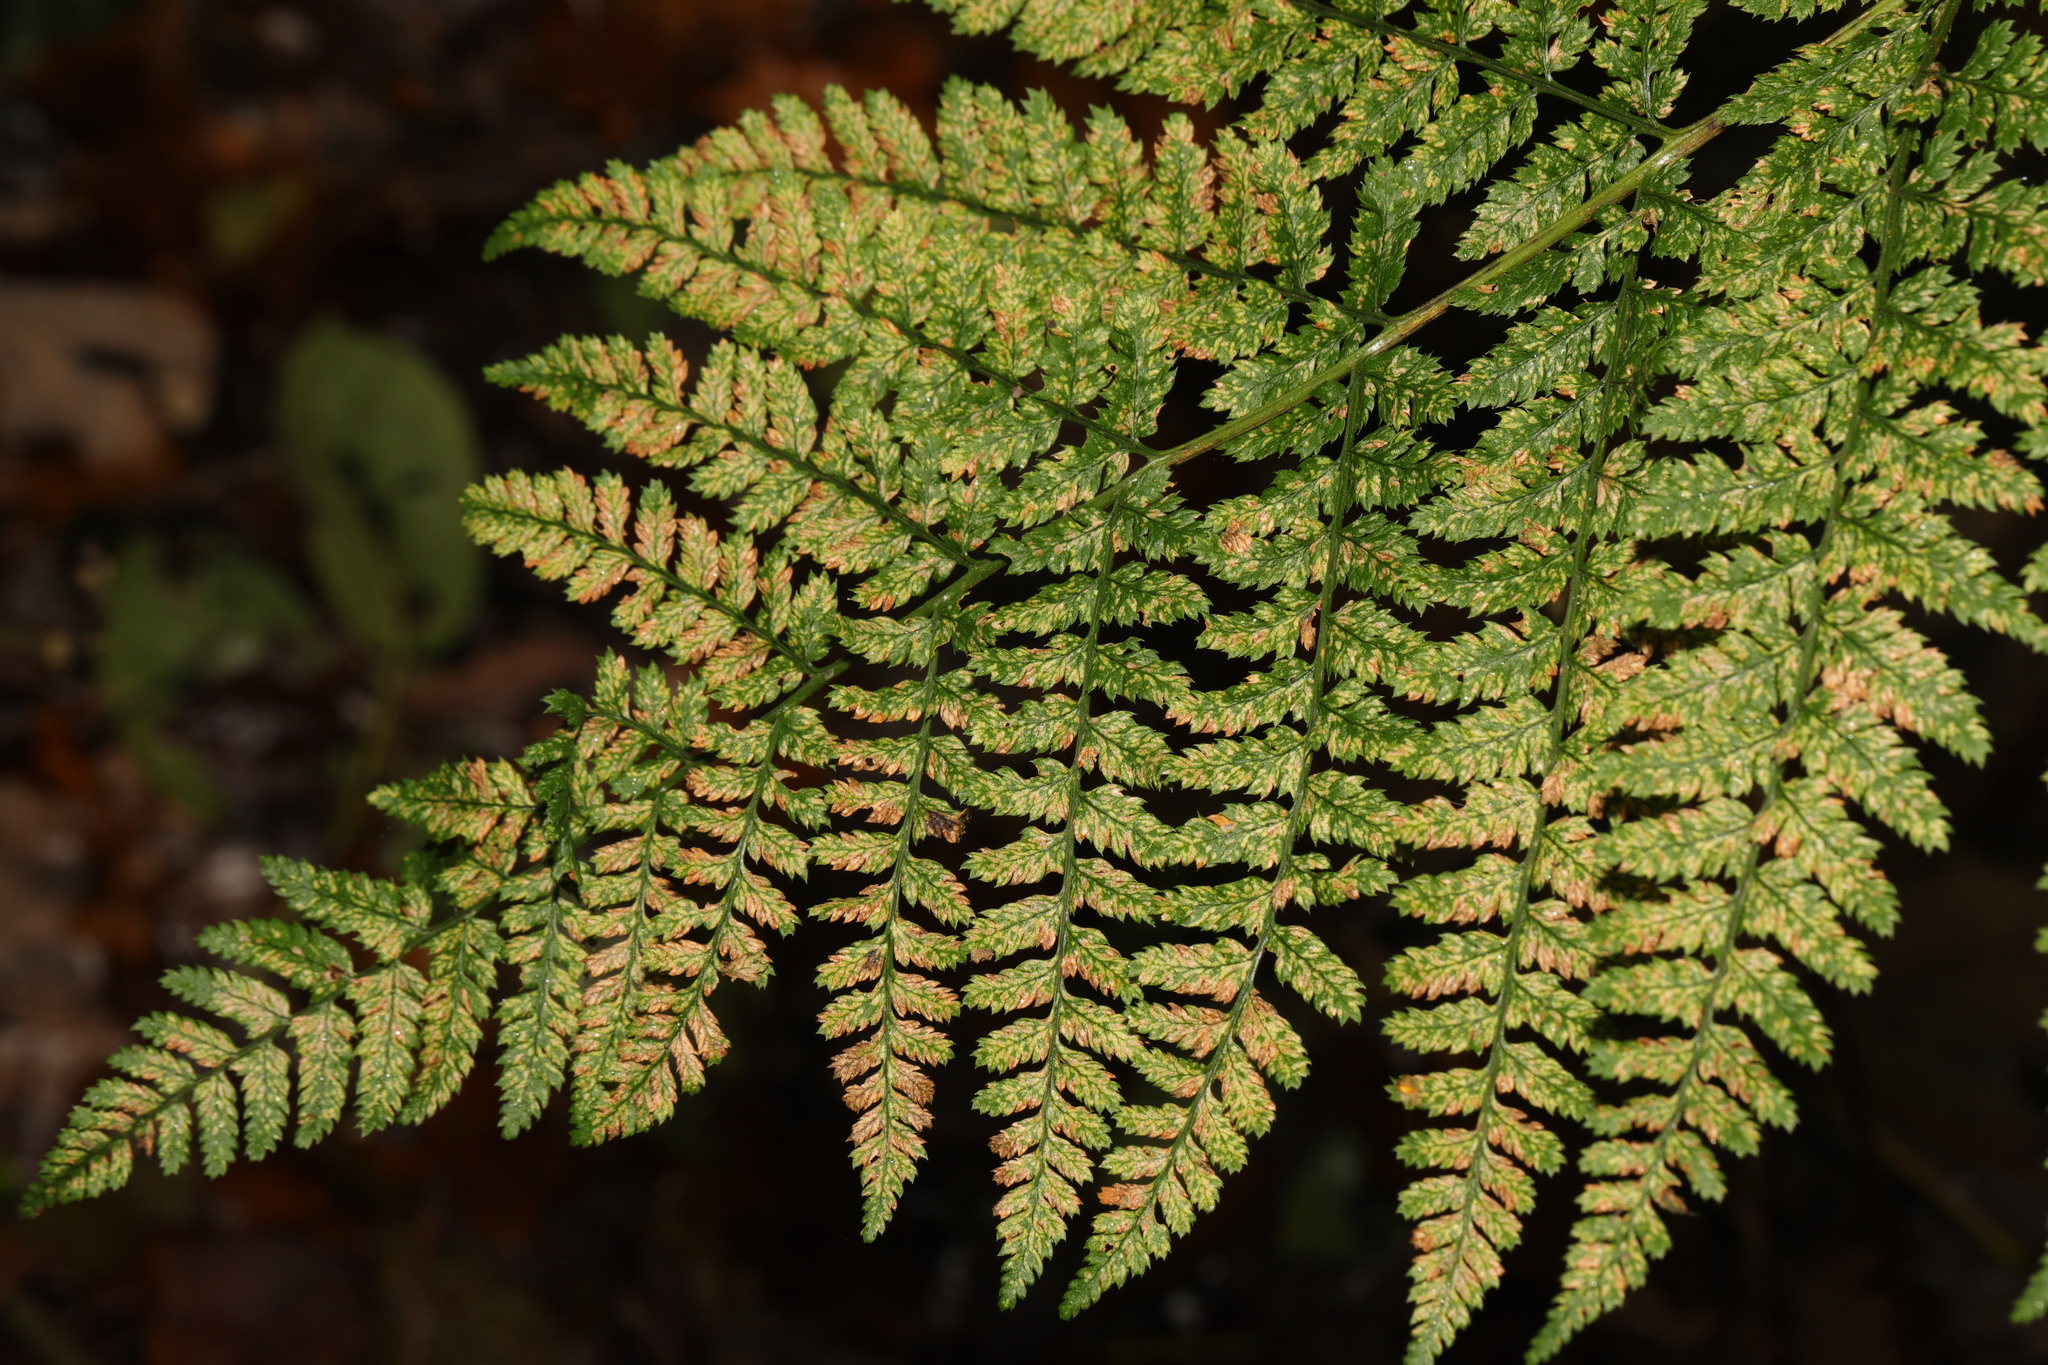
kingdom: Plantae
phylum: Tracheophyta
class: Polypodiopsida
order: Polypodiales
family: Dryopteridaceae
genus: Dryopteris
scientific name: Dryopteris dilatata
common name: Broad buckler-fern
